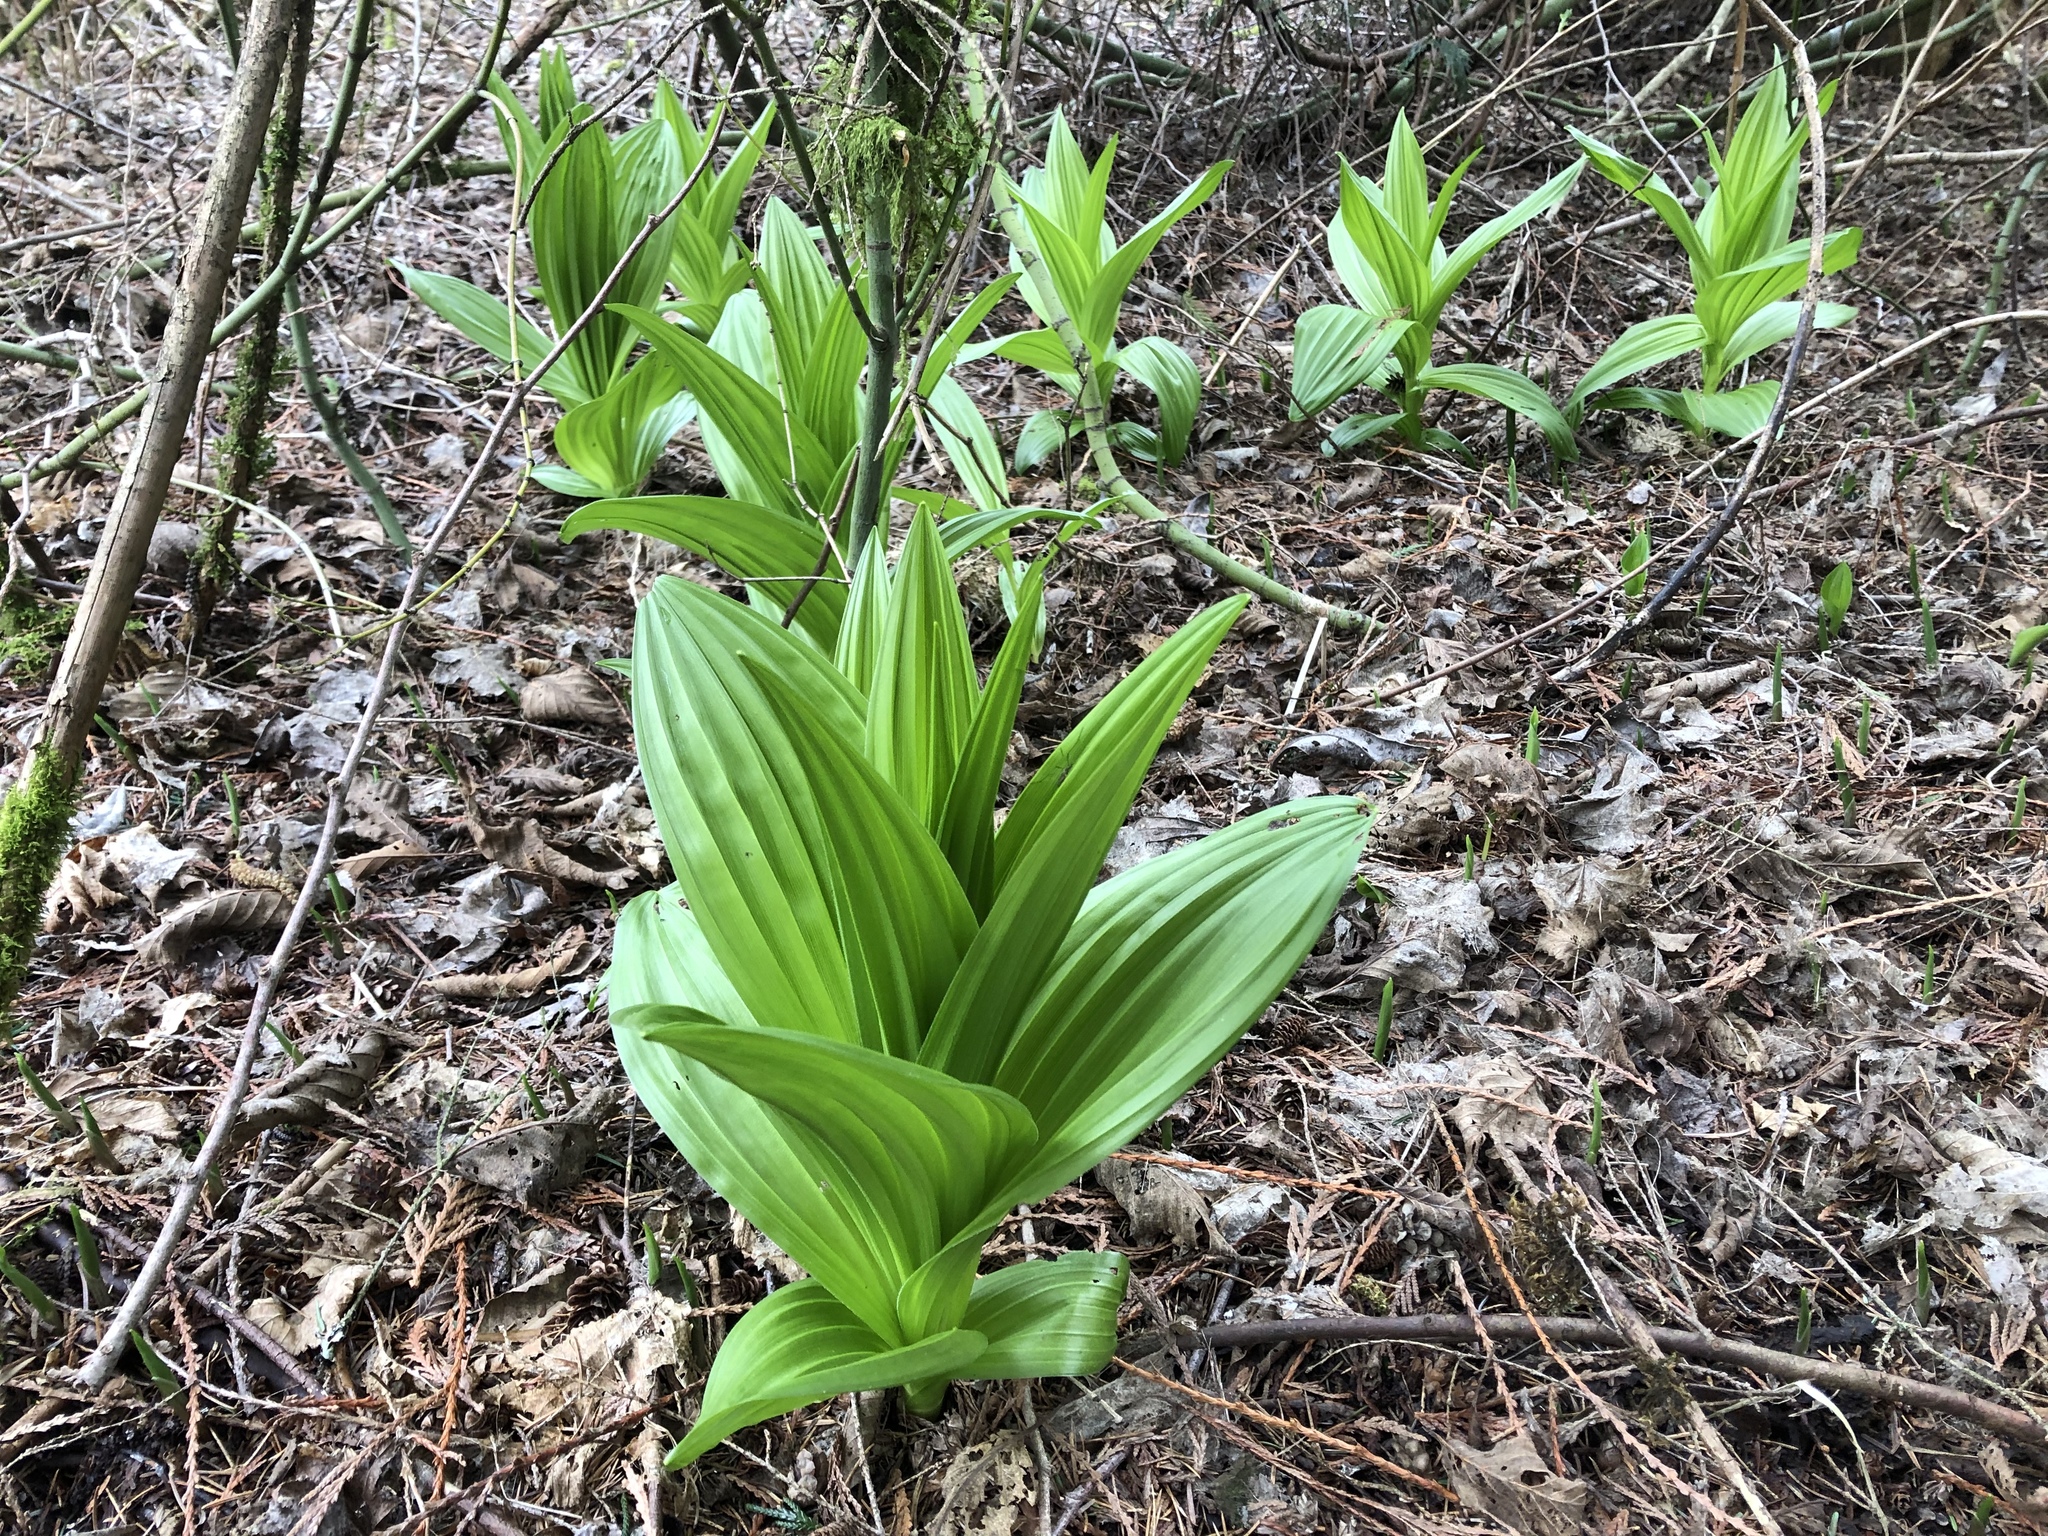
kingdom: Plantae
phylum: Tracheophyta
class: Liliopsida
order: Liliales
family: Melanthiaceae
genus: Veratrum
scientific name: Veratrum californicum
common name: California veratrum
